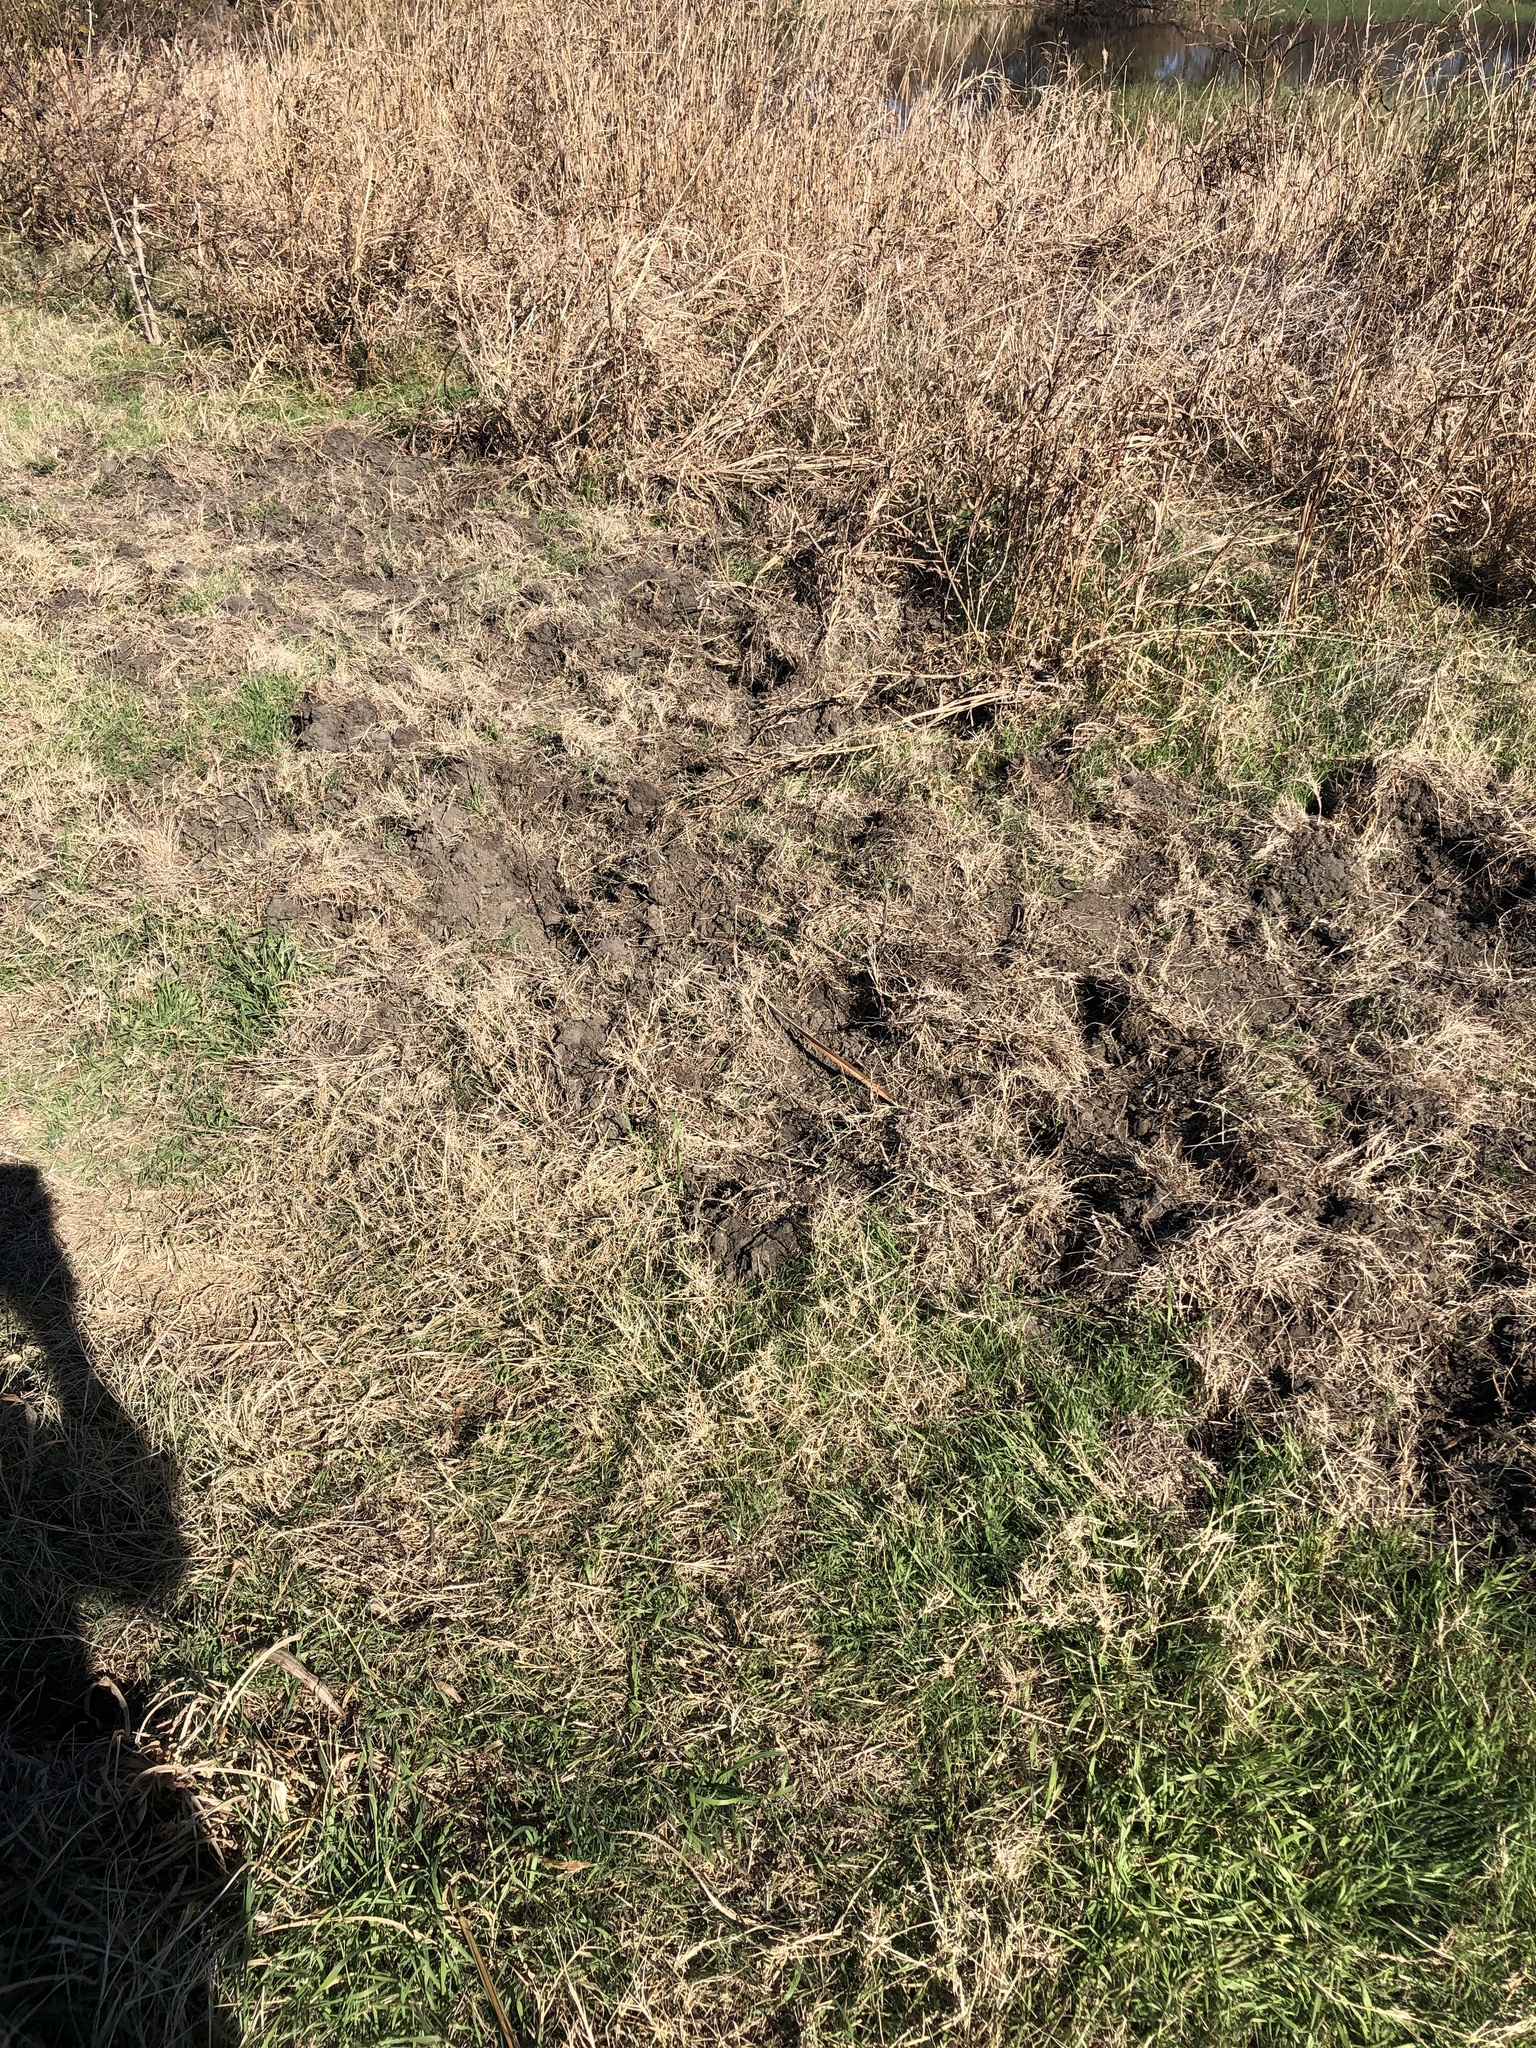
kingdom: Animalia
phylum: Chordata
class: Mammalia
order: Artiodactyla
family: Suidae
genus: Sus
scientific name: Sus scrofa
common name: Wild boar
